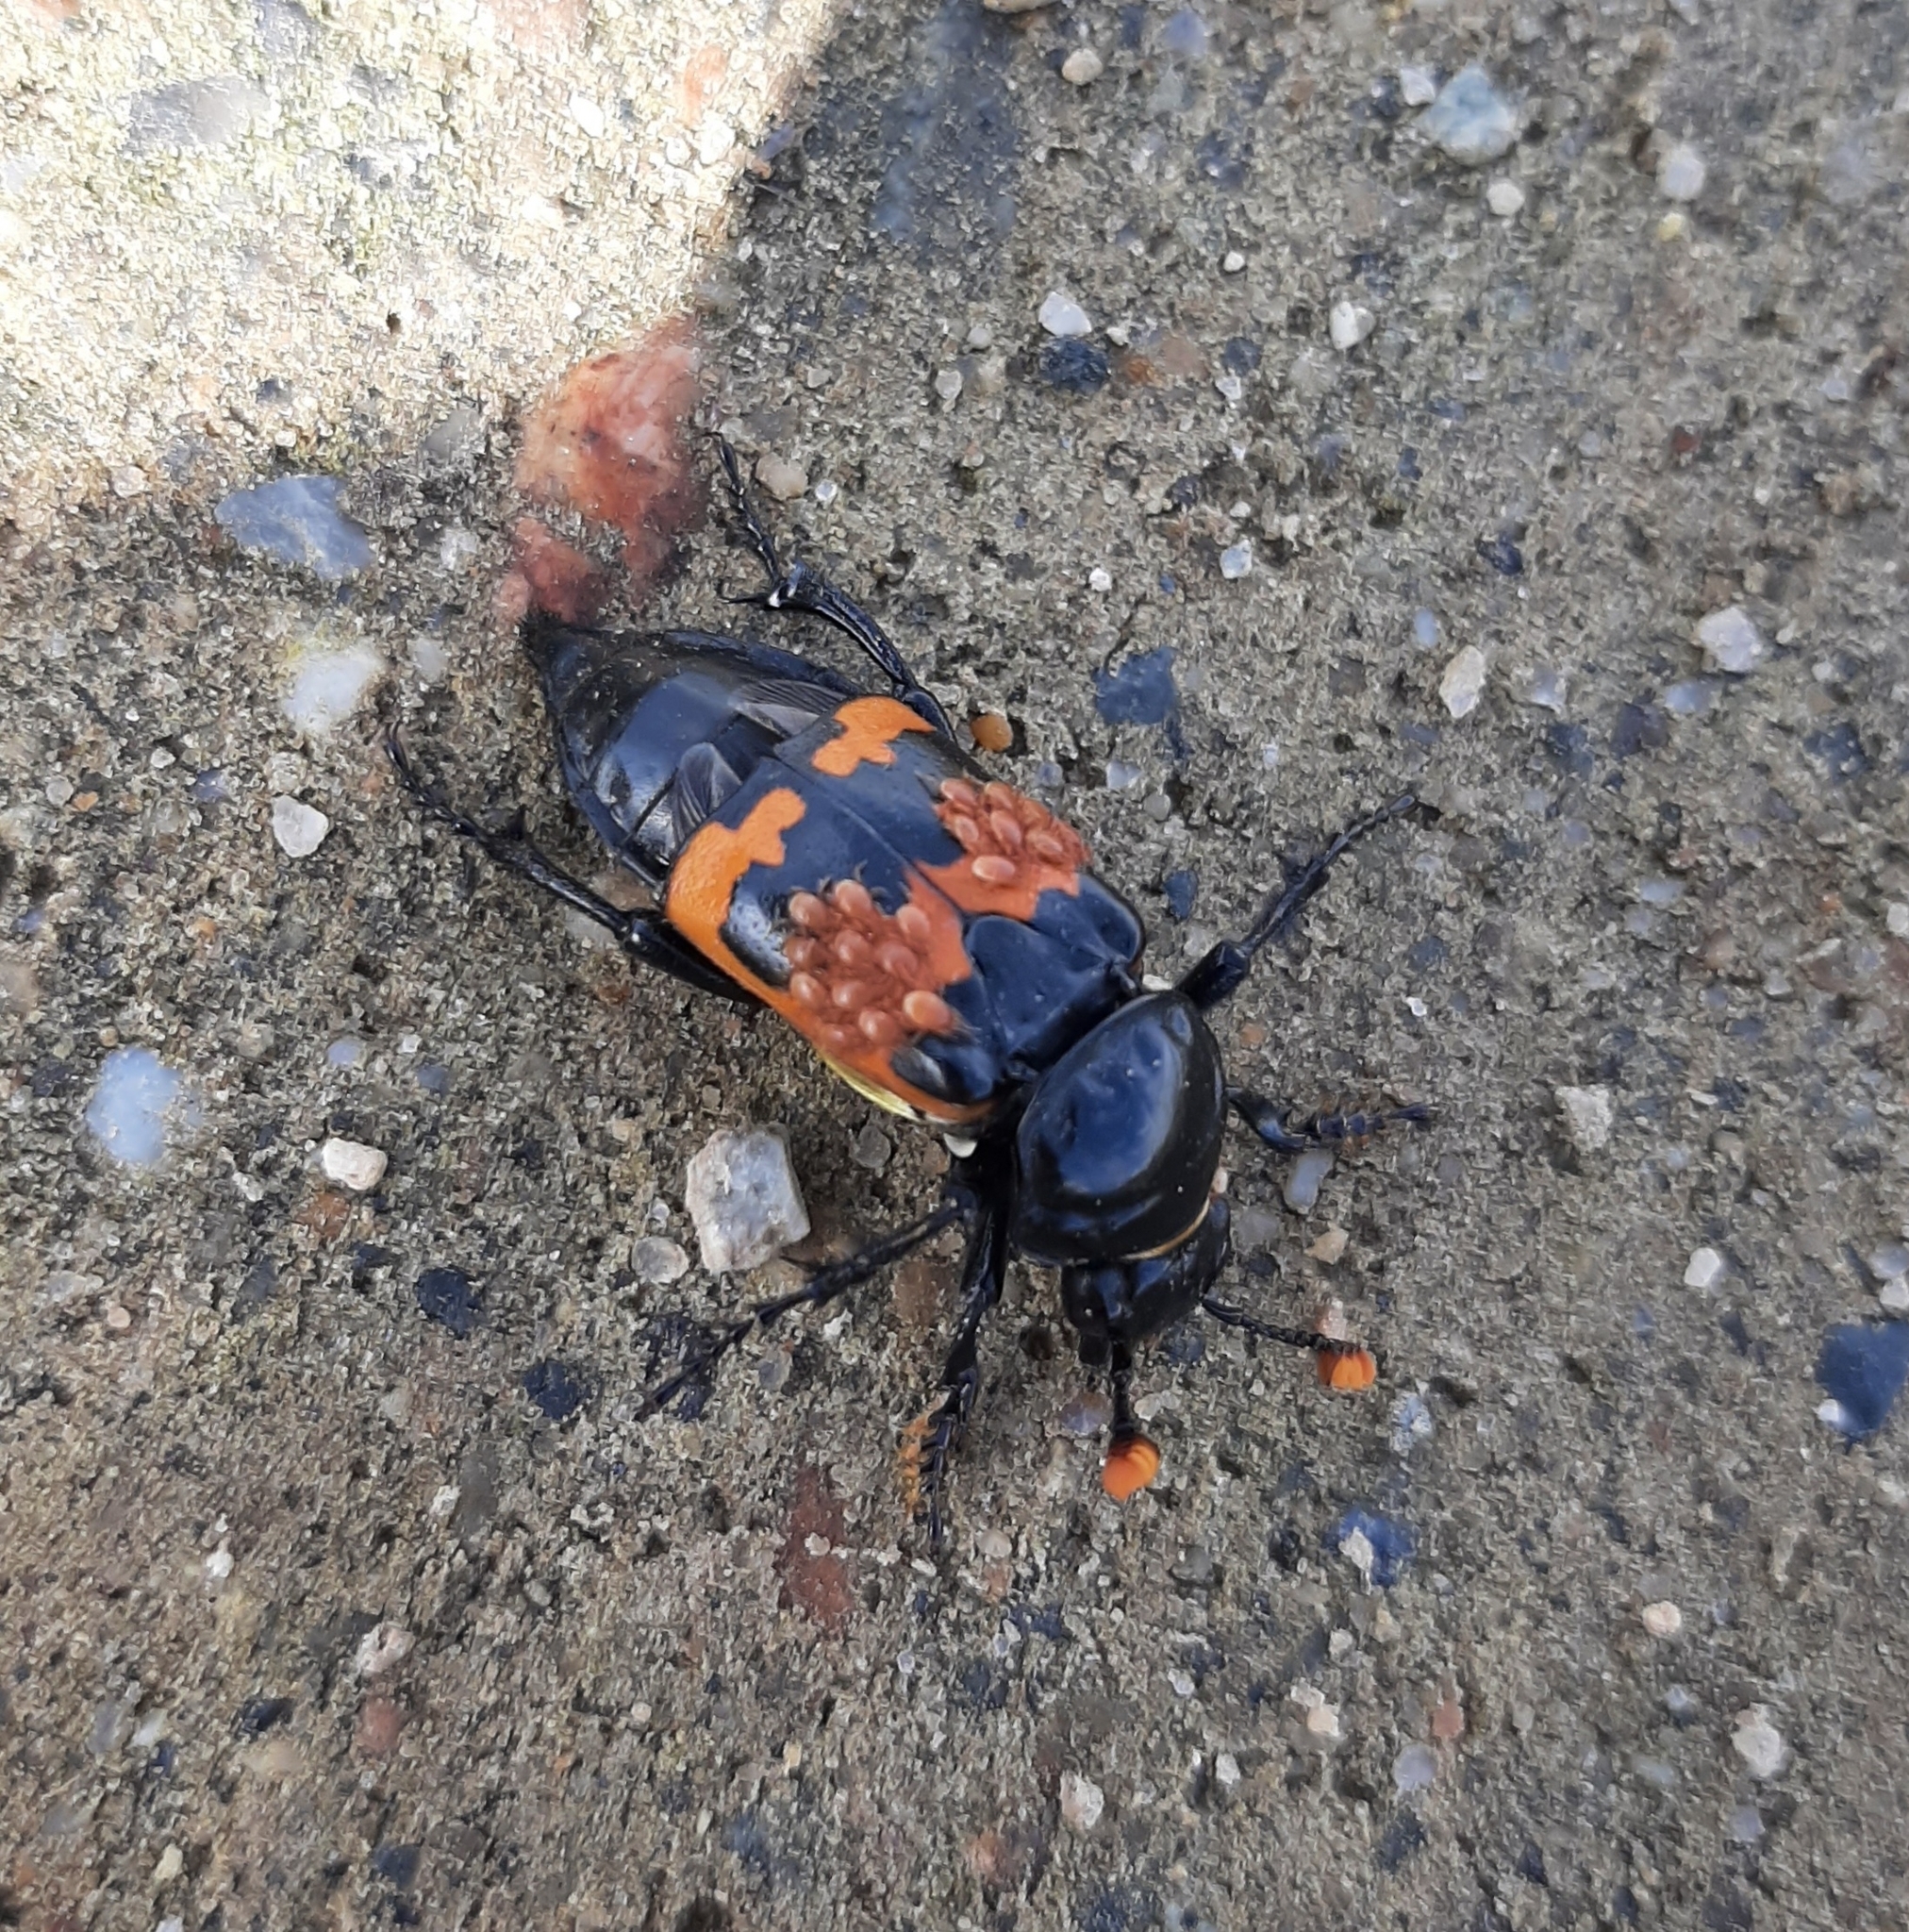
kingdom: Animalia
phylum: Arthropoda
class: Arachnida
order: Mesostigmata
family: Parasitidae
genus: Poecilochirus
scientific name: Poecilochirus
